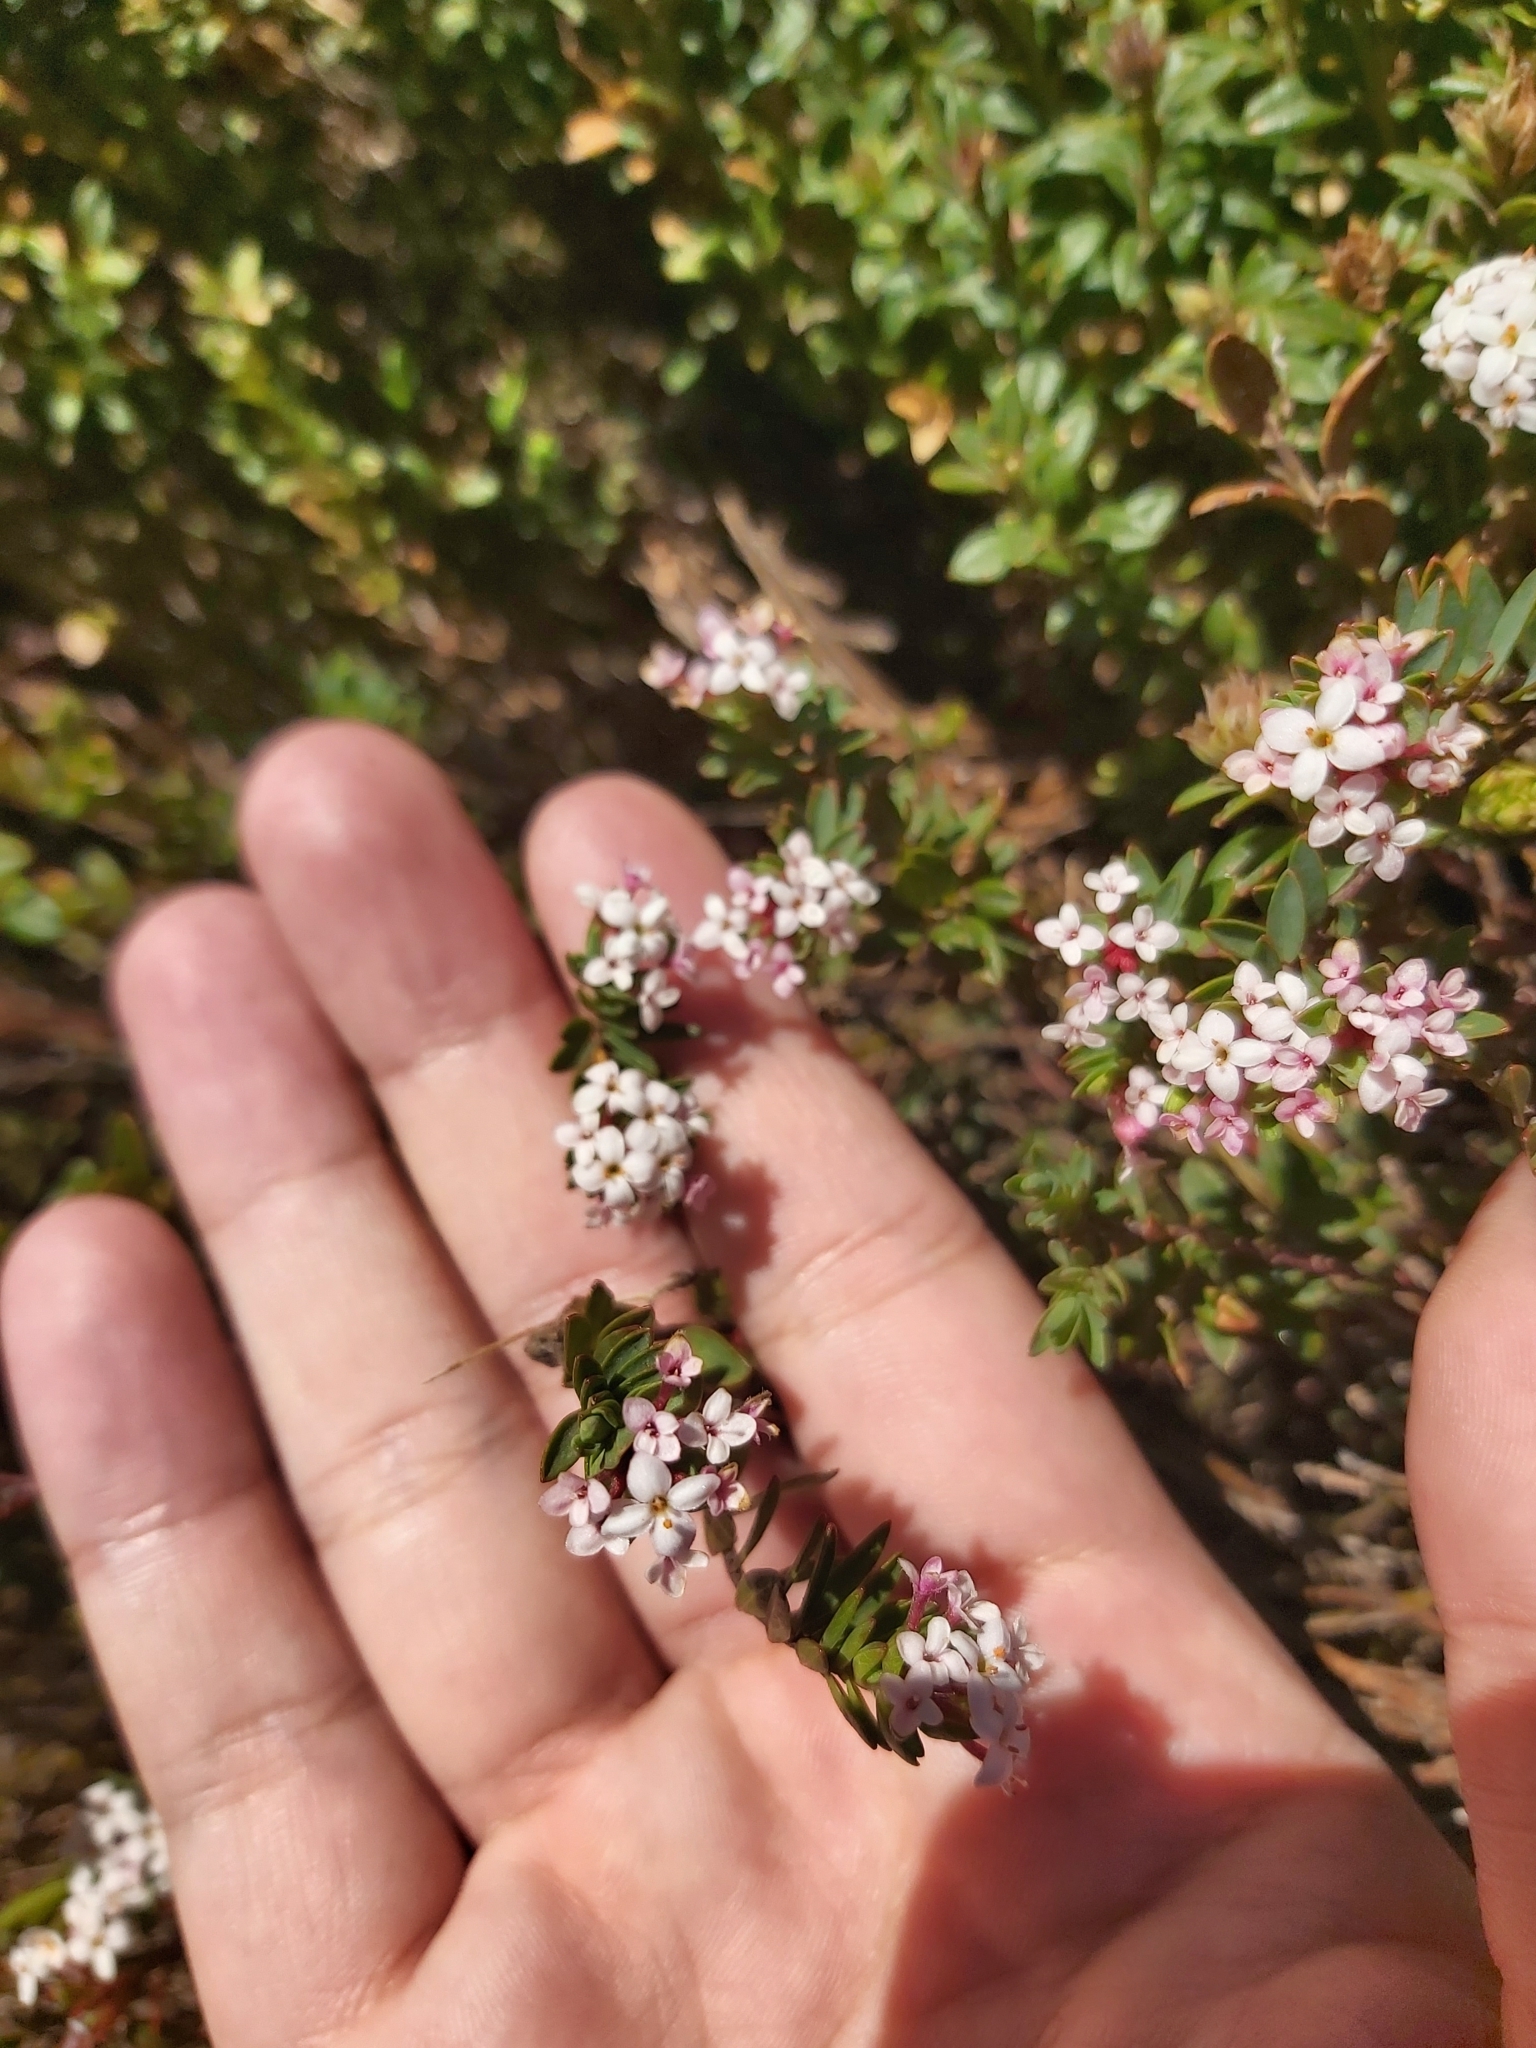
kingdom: Plantae
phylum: Tracheophyta
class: Magnoliopsida
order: Malvales
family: Thymelaeaceae
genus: Pimelea
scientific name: Pimelea alpina
